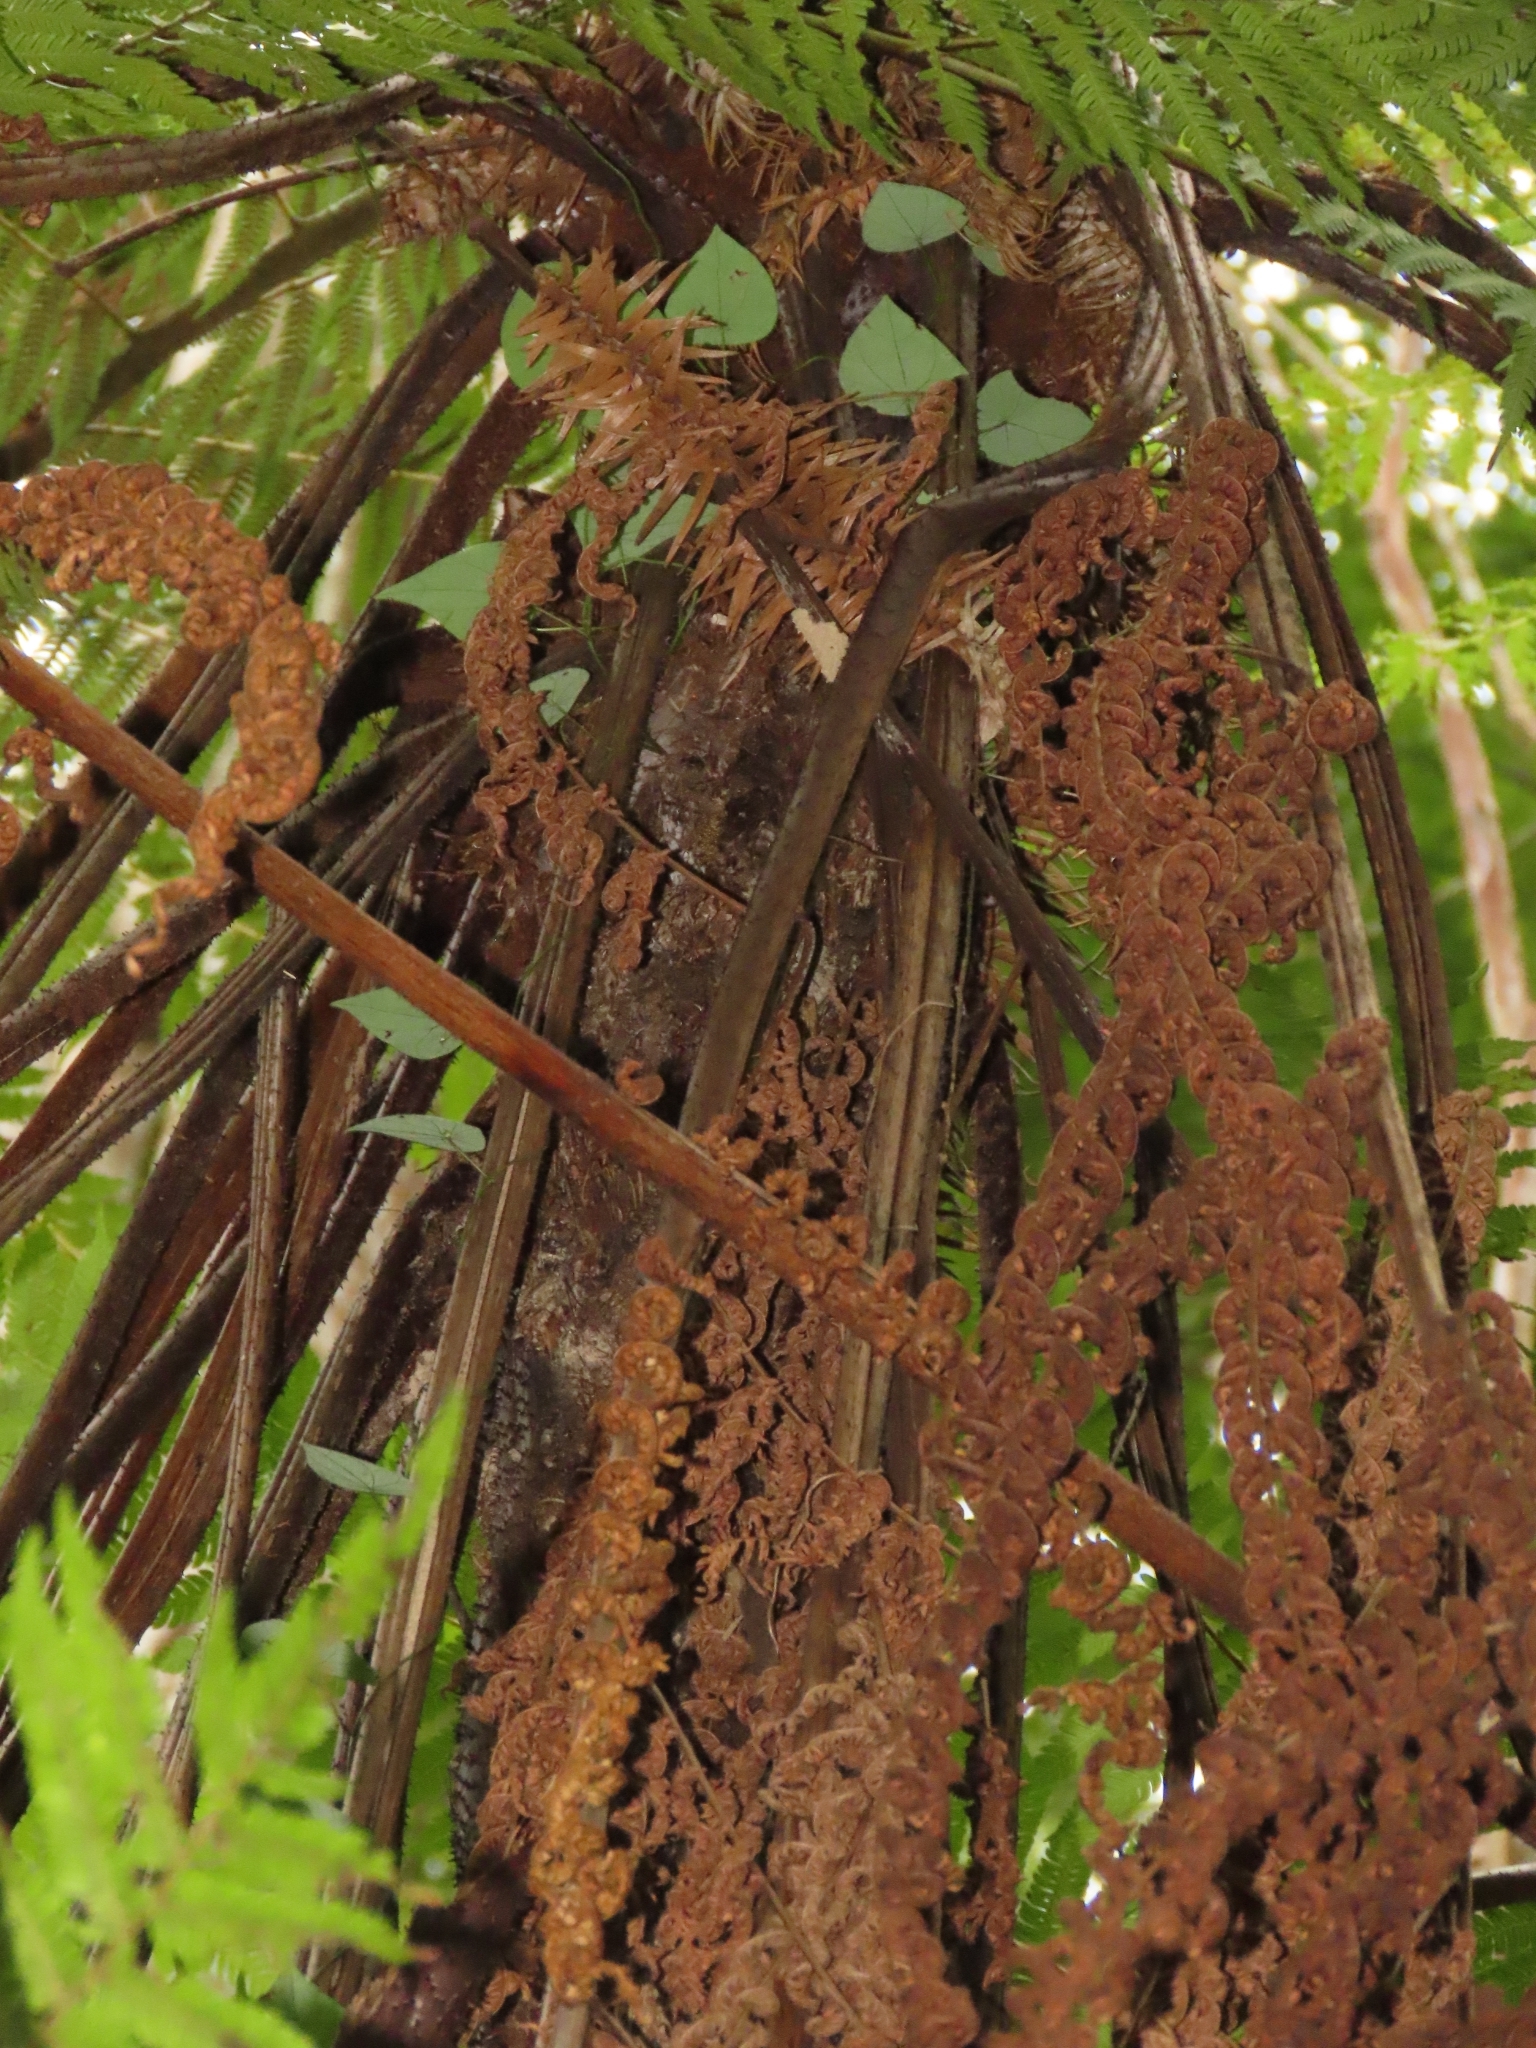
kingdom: Plantae
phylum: Tracheophyta
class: Polypodiopsida
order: Cyatheales
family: Cyatheaceae
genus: Alsophila
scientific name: Alsophila spinulosa
